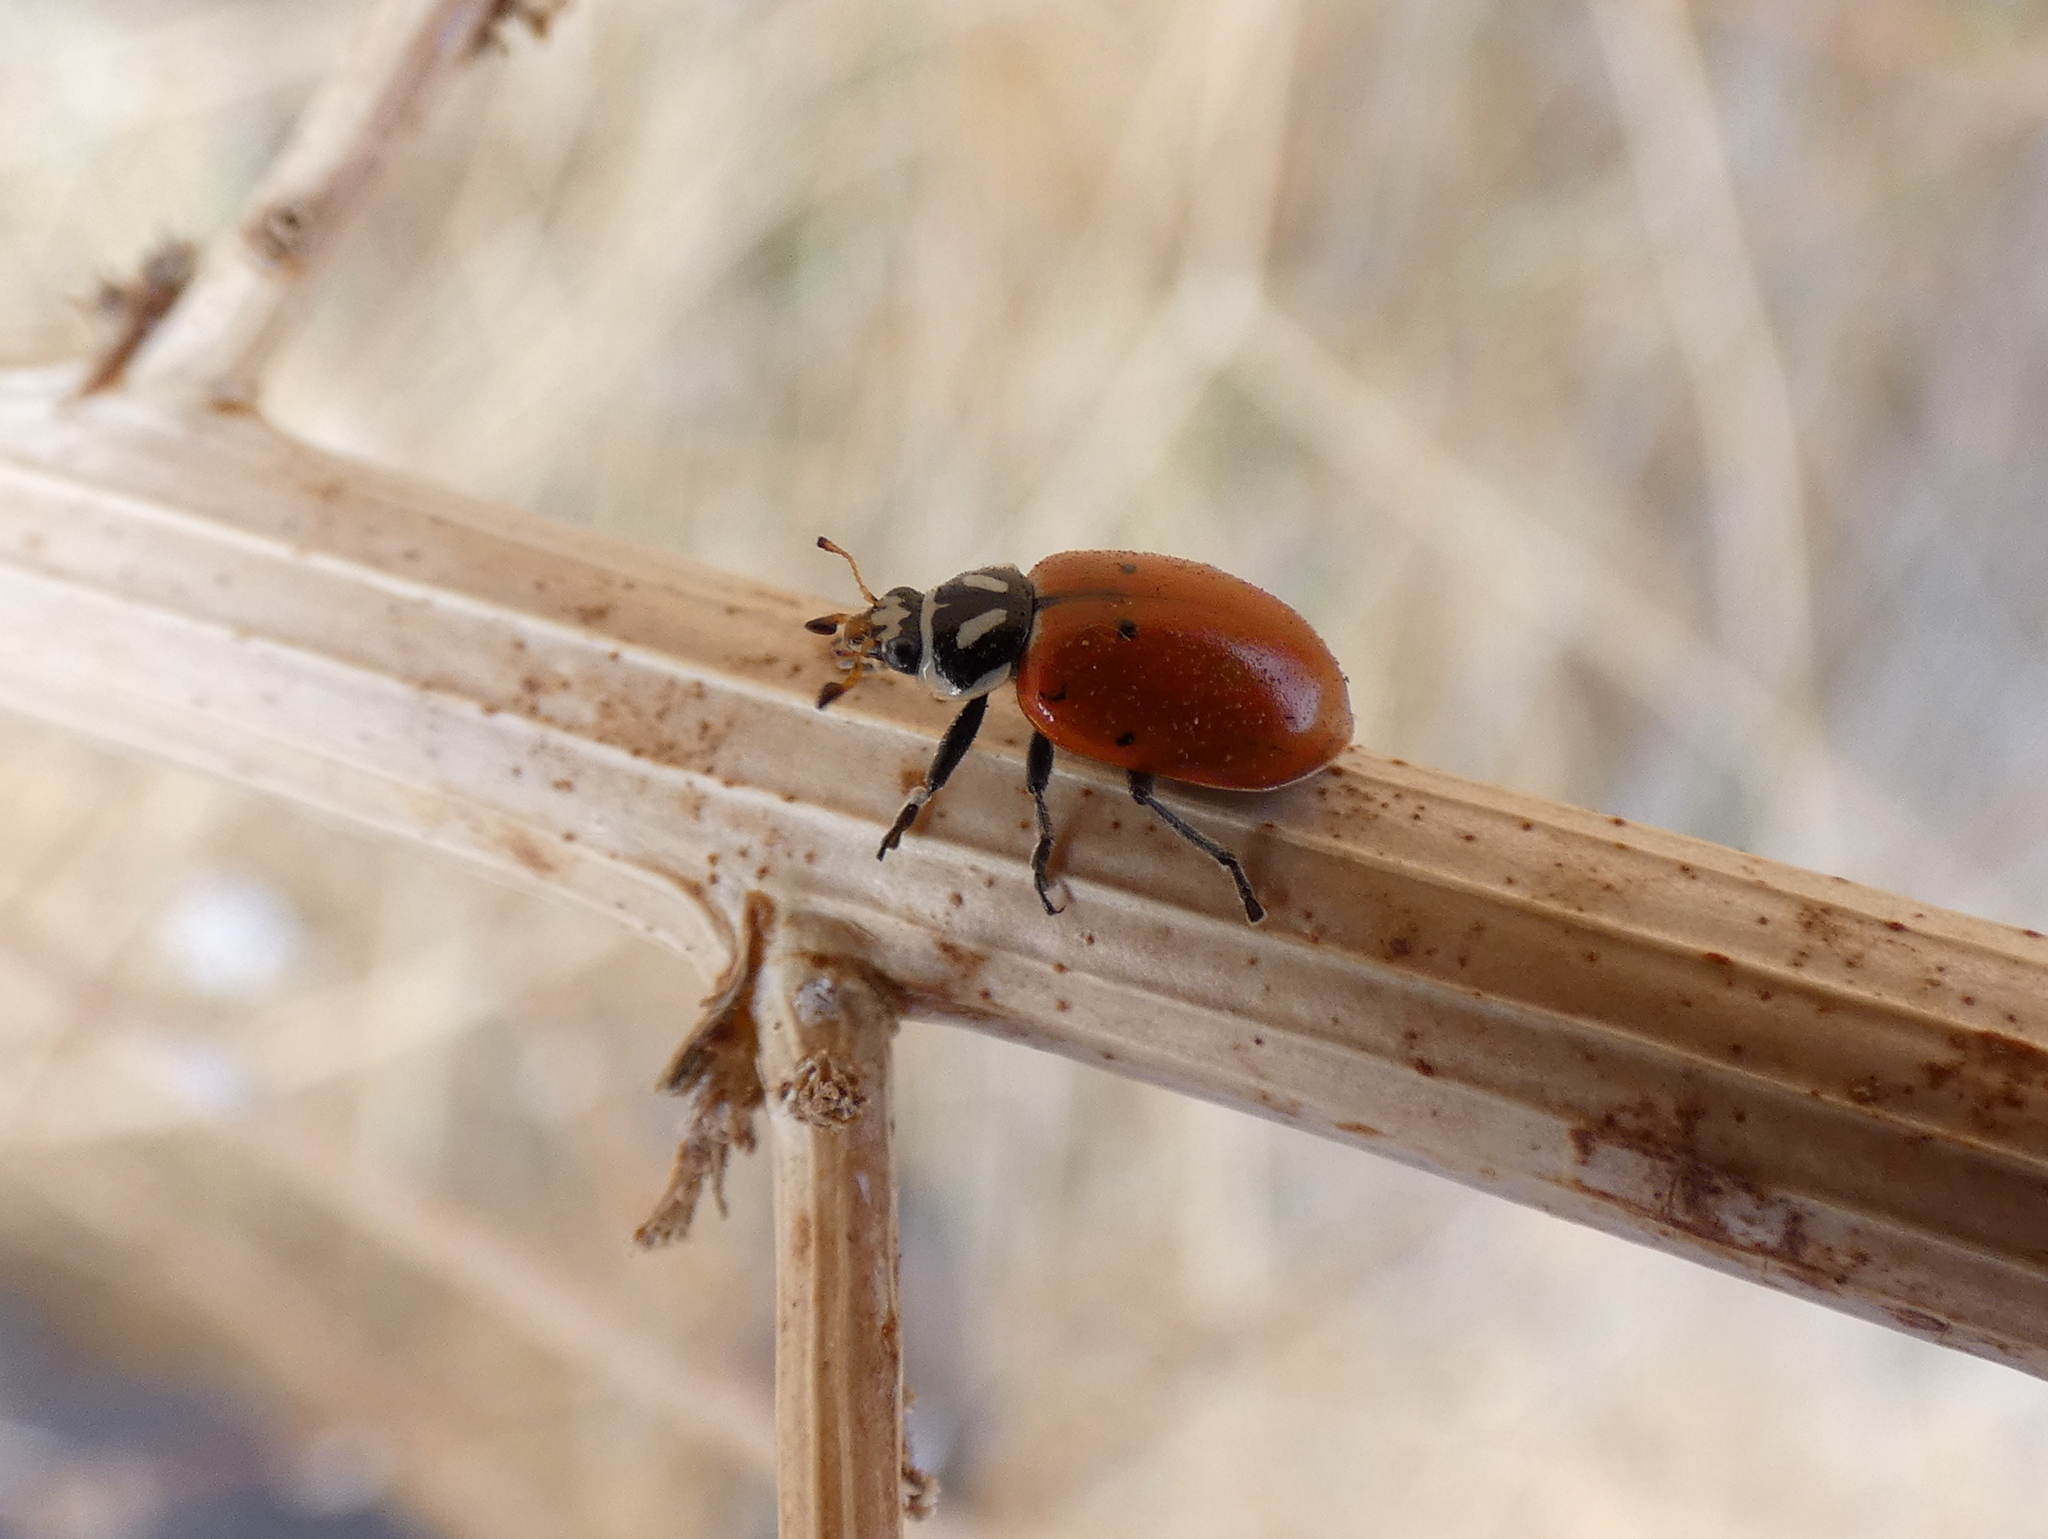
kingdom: Animalia
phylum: Arthropoda
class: Insecta
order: Coleoptera
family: Coccinellidae
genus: Hippodamia
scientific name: Hippodamia convergens
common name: Convergent lady beetle
